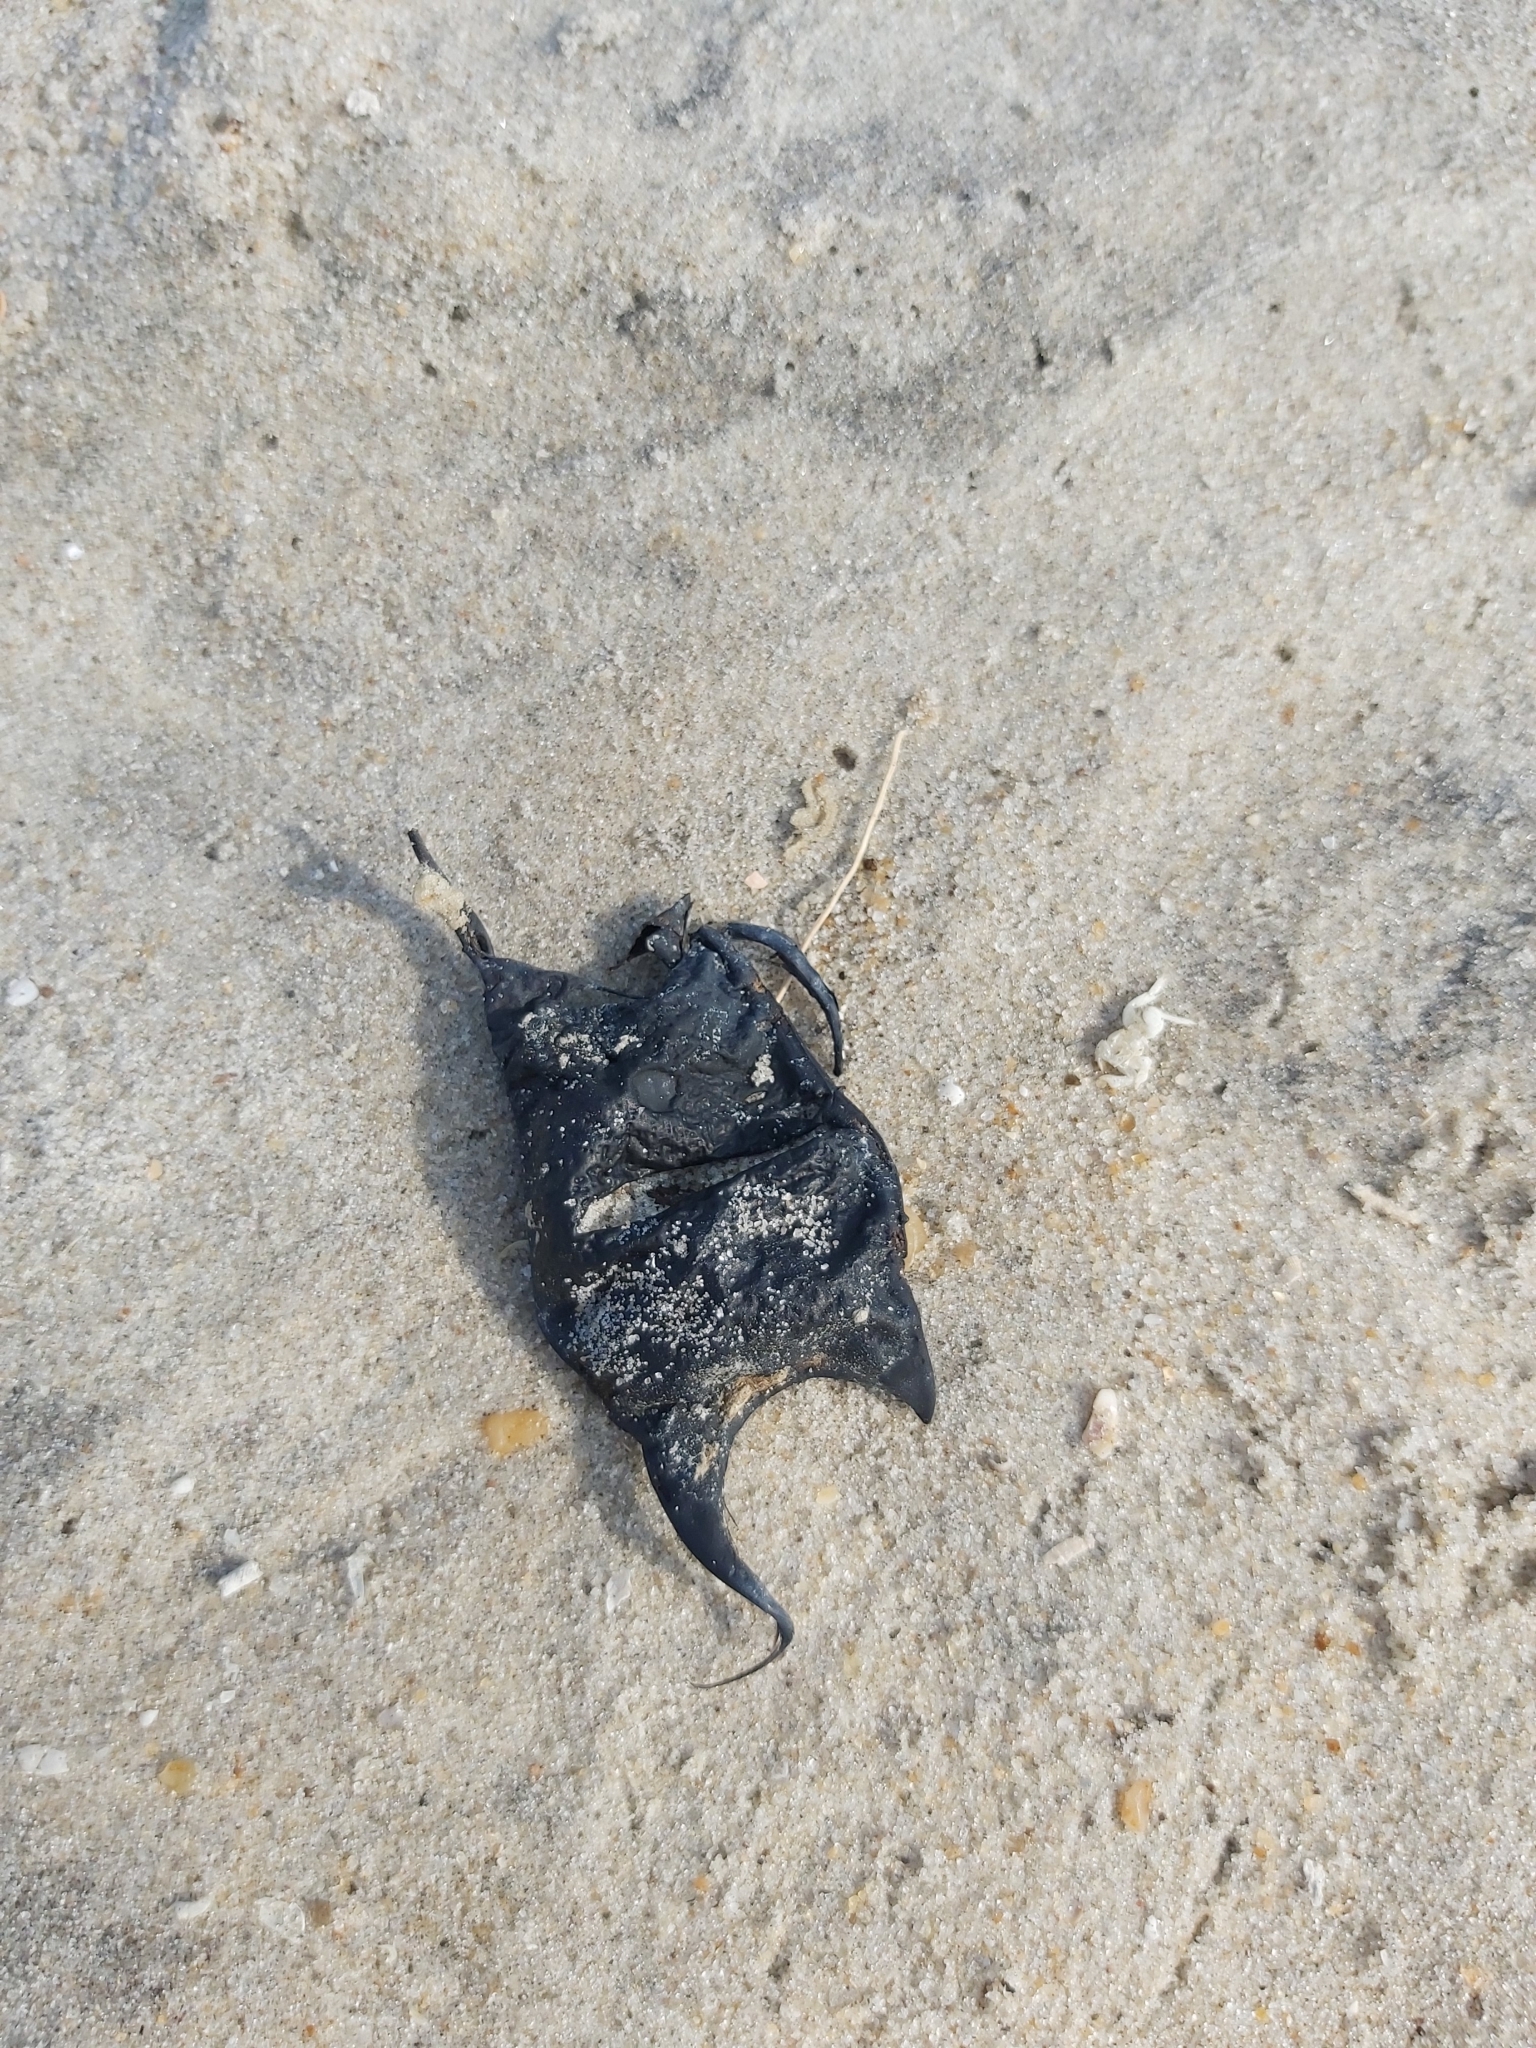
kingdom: Animalia
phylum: Chordata
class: Elasmobranchii
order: Rajiformes
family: Rajidae
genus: Raja
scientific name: Raja eglanteria
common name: Clearnose skate
